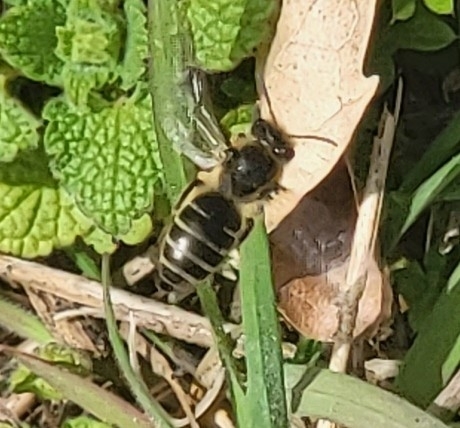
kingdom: Animalia
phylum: Arthropoda
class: Insecta
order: Hymenoptera
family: Colletidae
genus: Colletes
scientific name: Colletes inaequalis
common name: Unequal cellophane bee
